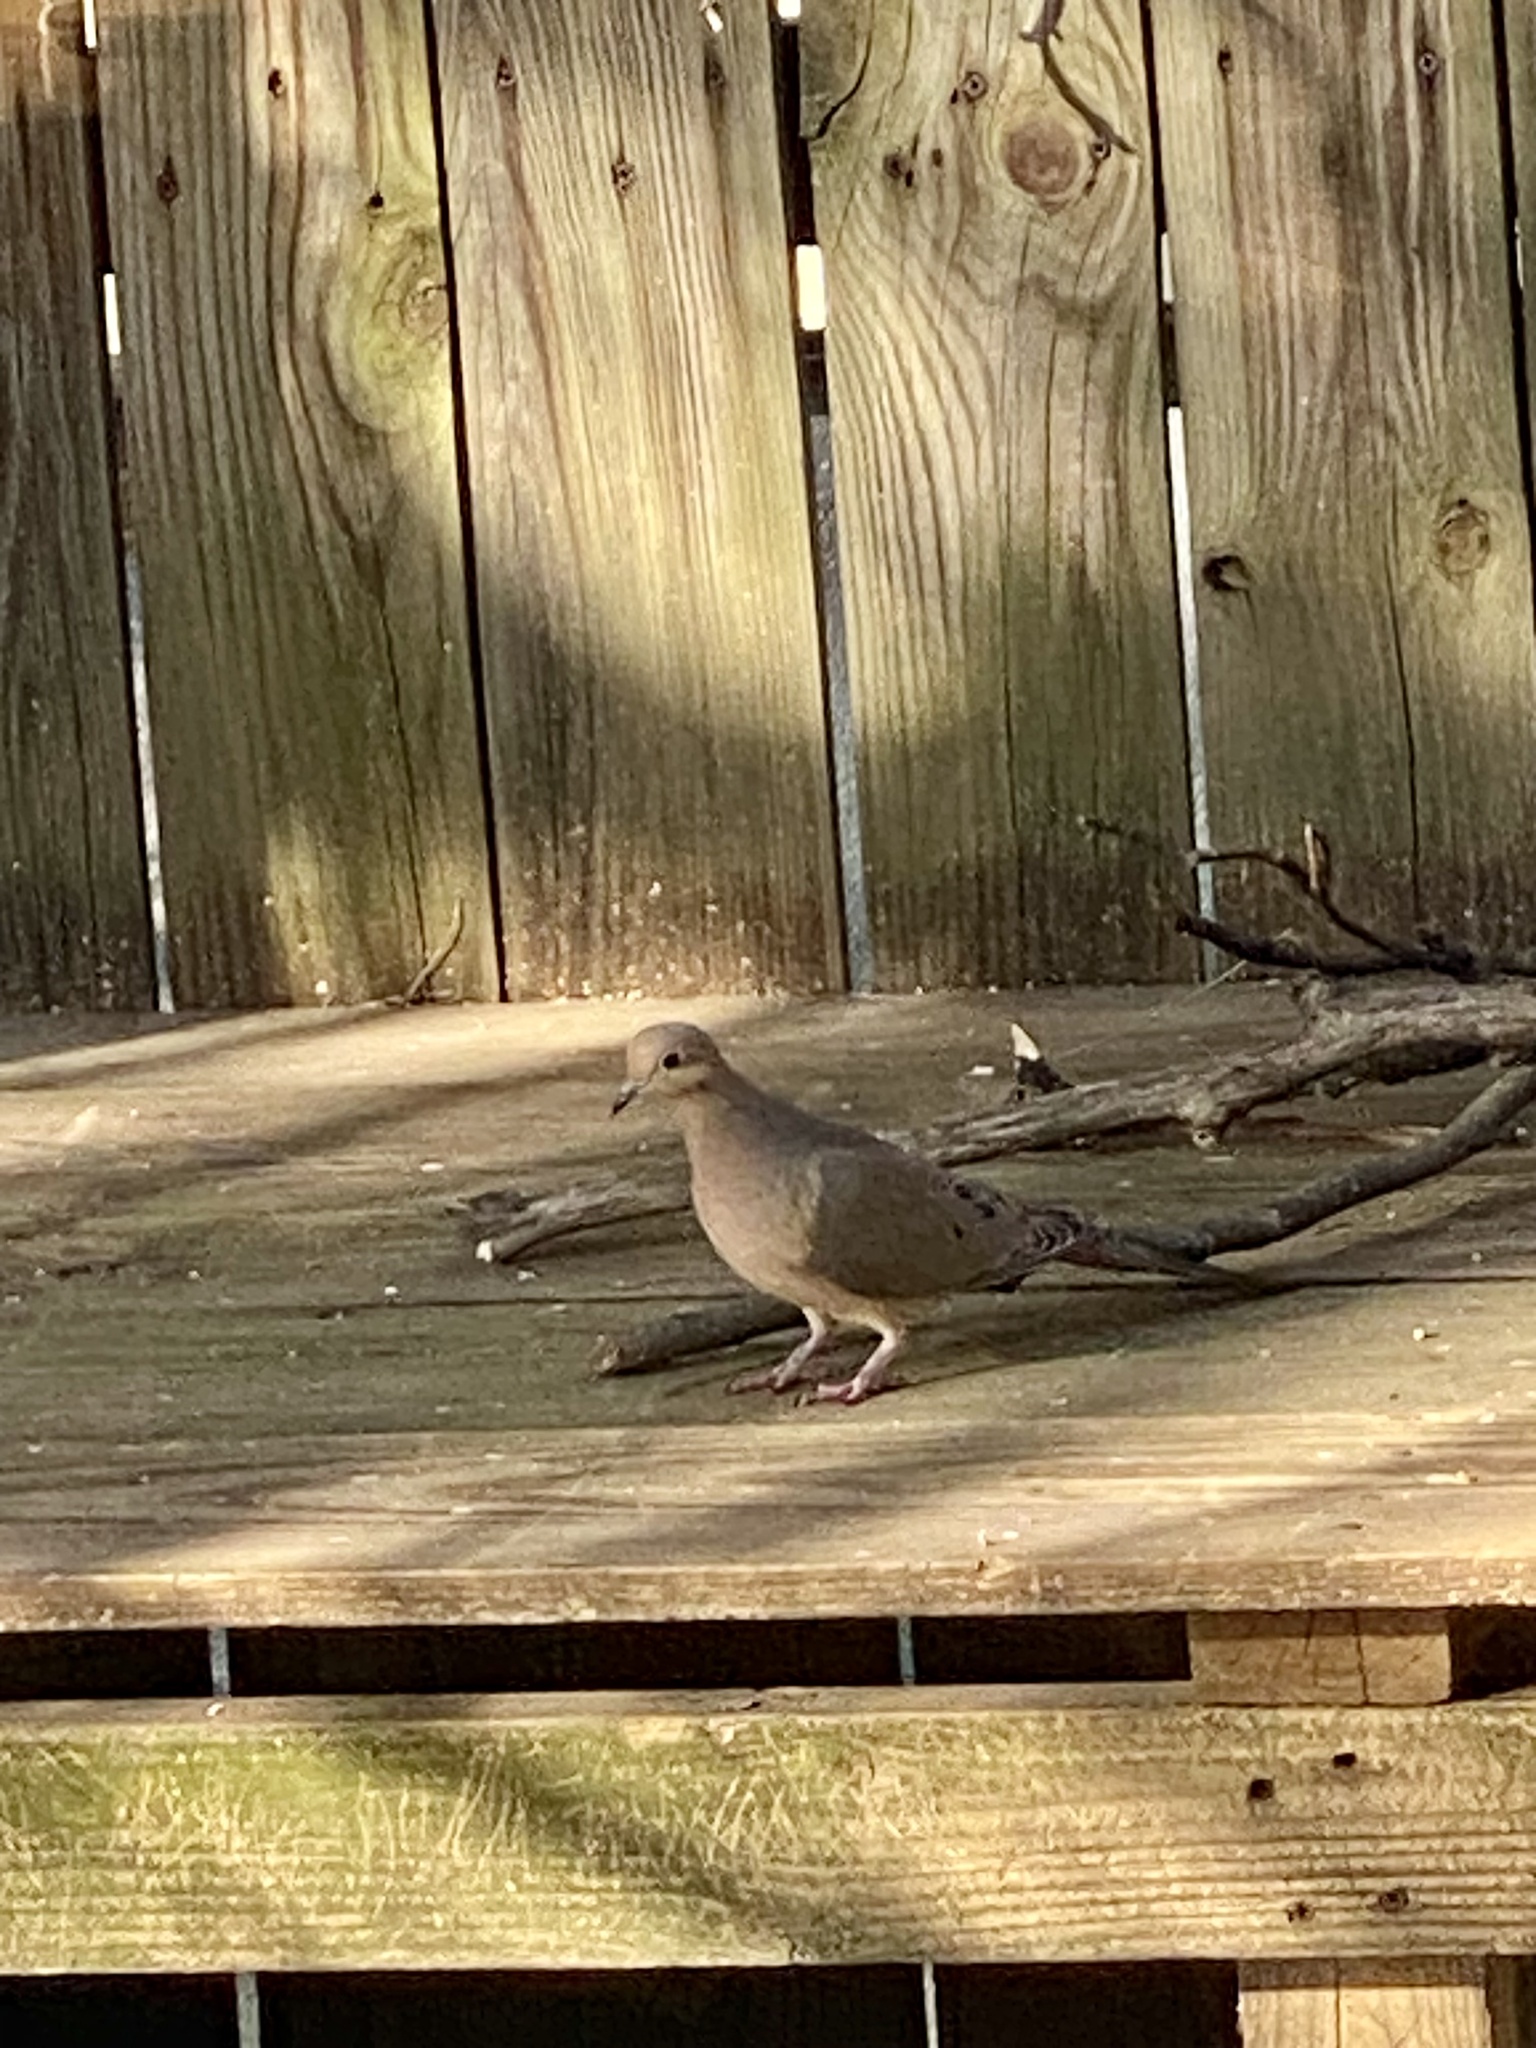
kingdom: Animalia
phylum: Chordata
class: Aves
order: Columbiformes
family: Columbidae
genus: Zenaida
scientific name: Zenaida macroura
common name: Mourning dove
